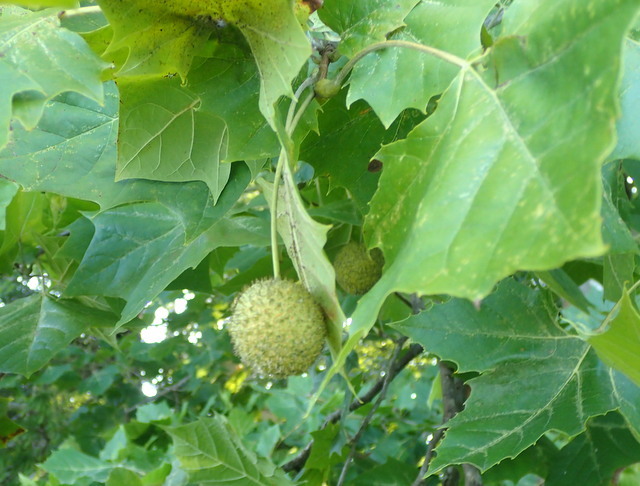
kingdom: Plantae
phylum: Tracheophyta
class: Magnoliopsida
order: Proteales
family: Platanaceae
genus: Platanus
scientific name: Platanus occidentalis
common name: American sycamore
